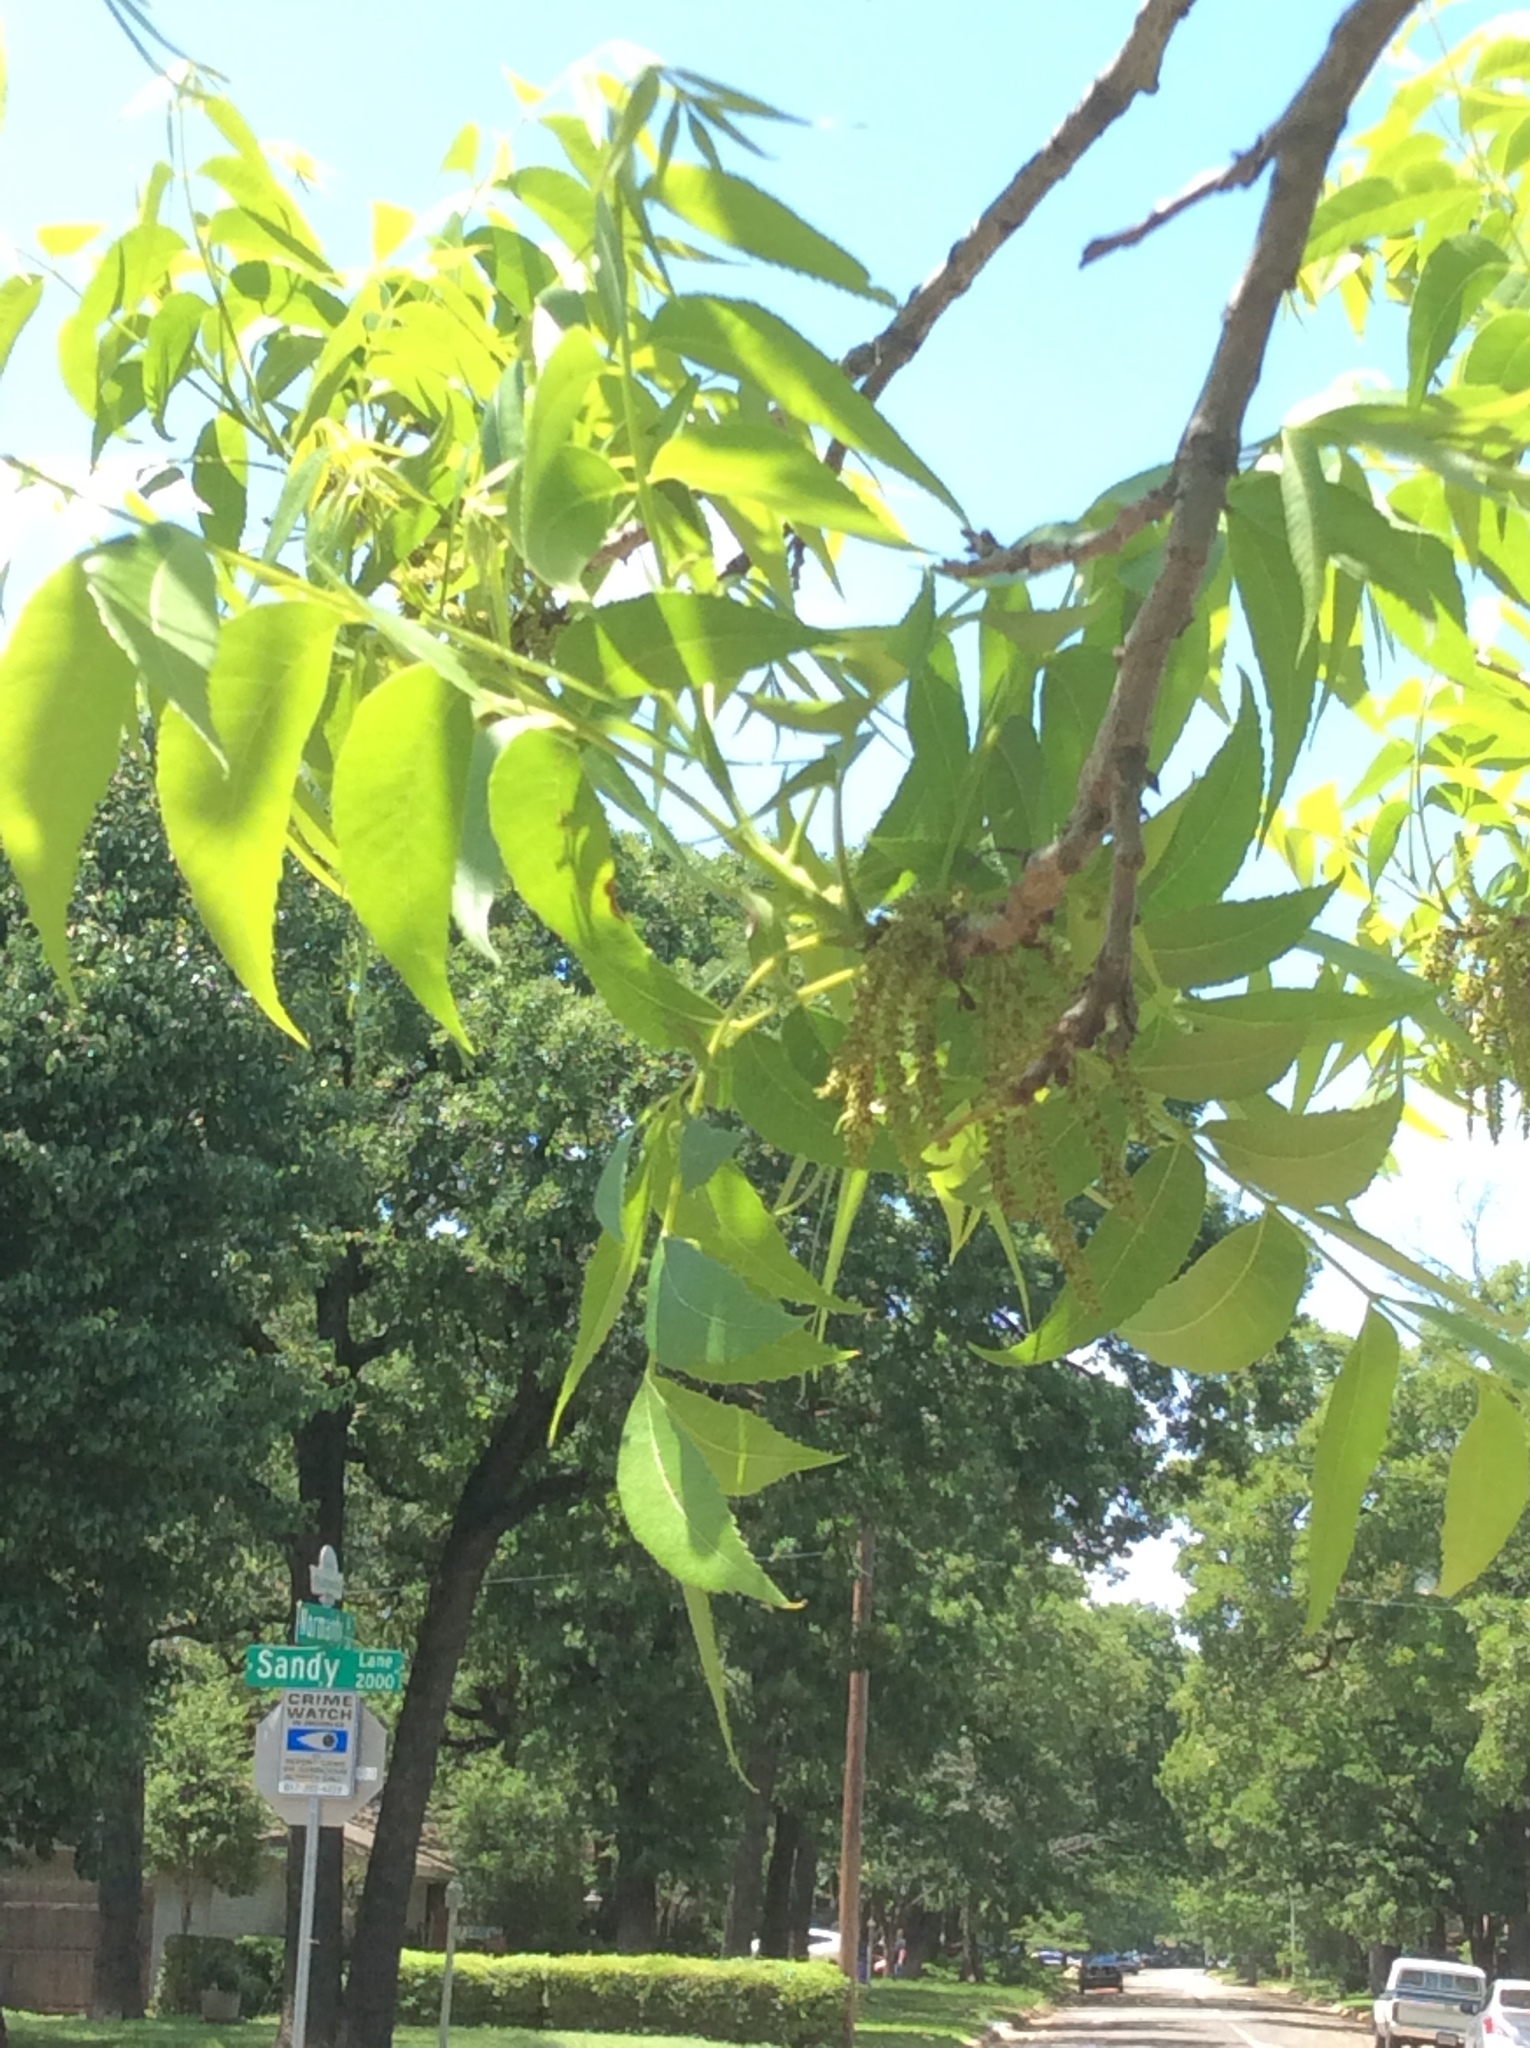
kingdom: Plantae
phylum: Tracheophyta
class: Magnoliopsida
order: Fagales
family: Juglandaceae
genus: Carya
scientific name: Carya illinoinensis
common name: Pecan
